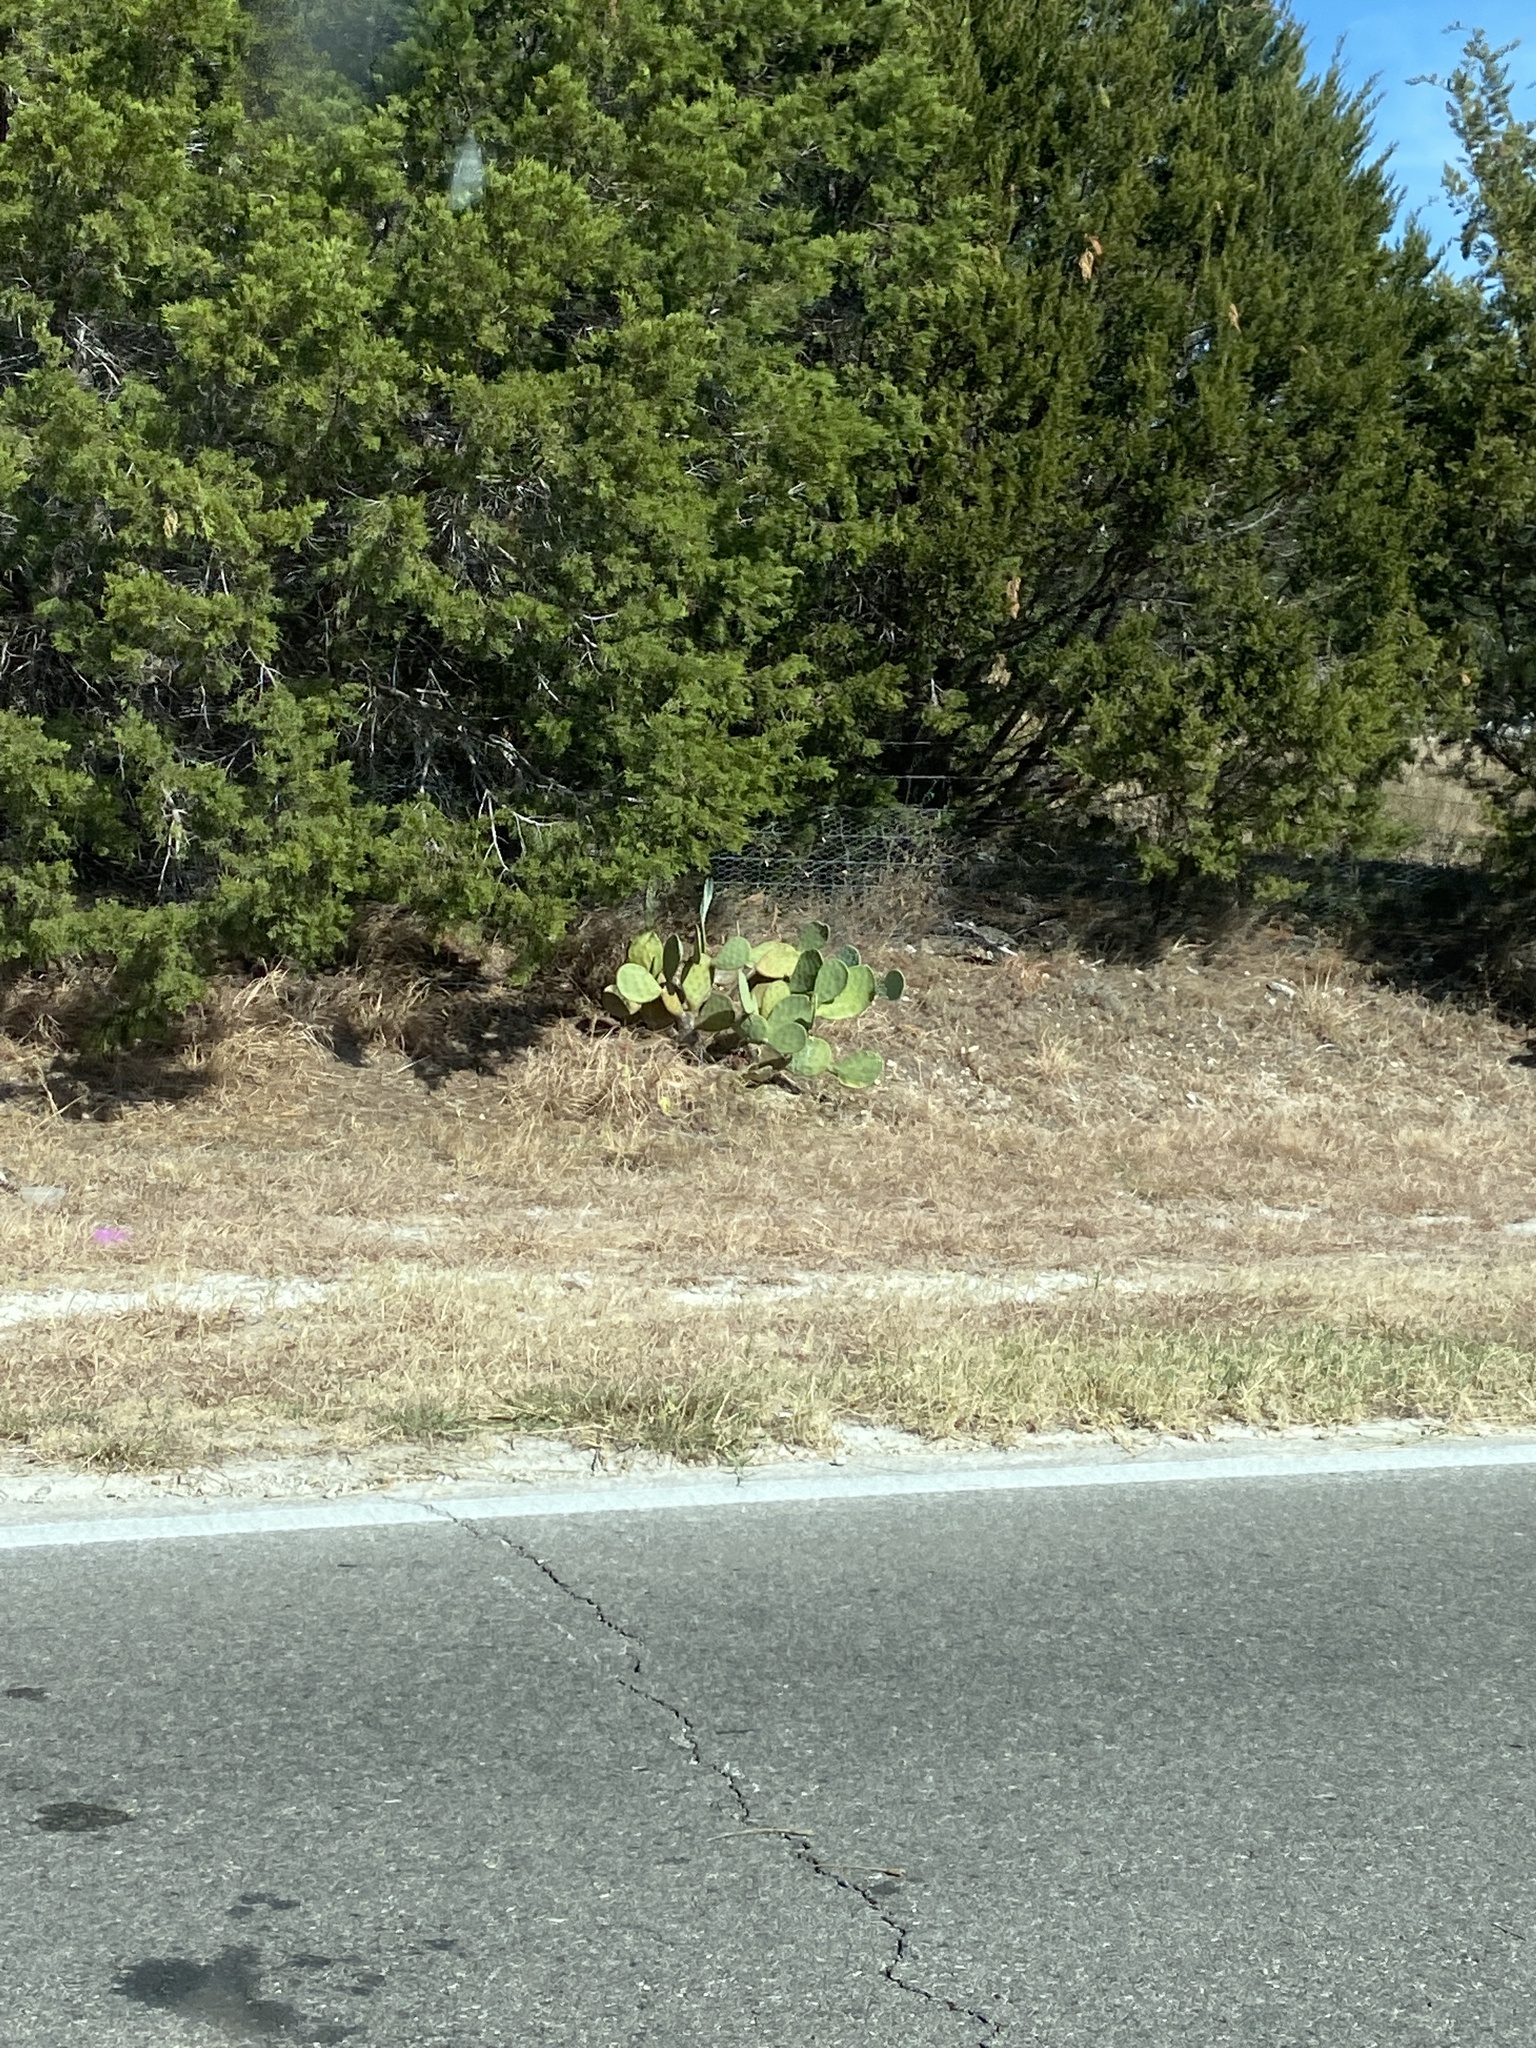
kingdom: Animalia
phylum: Chordata
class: Aves
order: Cuculiformes
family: Cuculidae
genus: Geococcyx
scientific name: Geococcyx californianus
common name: Greater roadrunner
